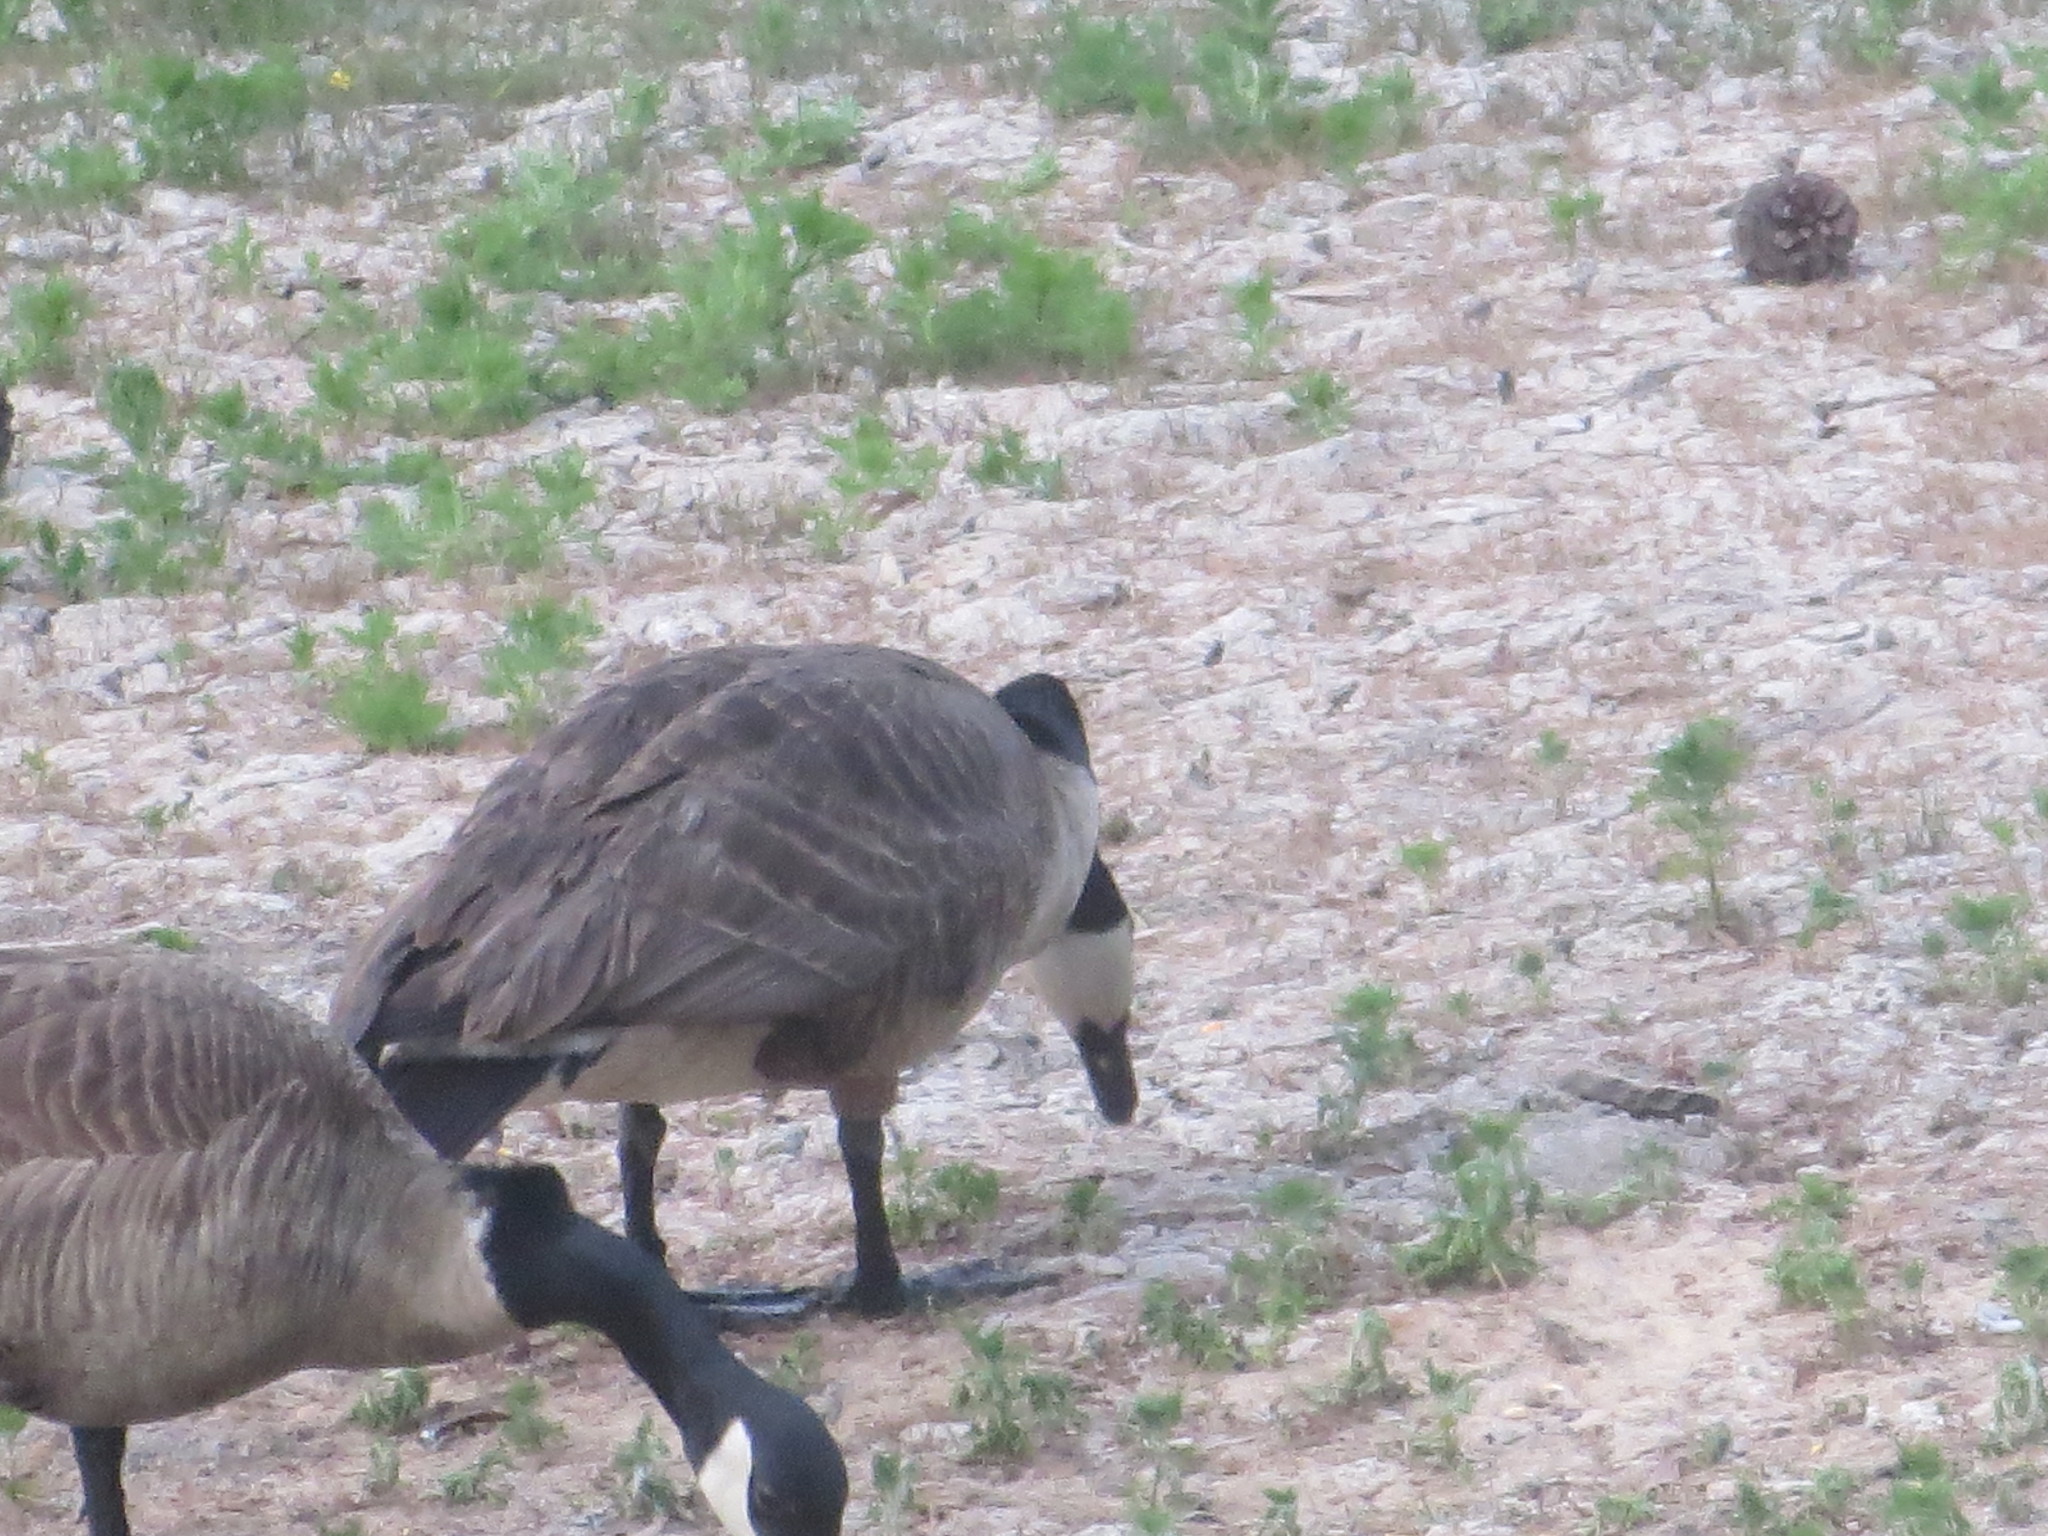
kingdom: Animalia
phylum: Chordata
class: Aves
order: Anseriformes
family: Anatidae
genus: Branta
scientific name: Branta canadensis
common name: Canada goose
